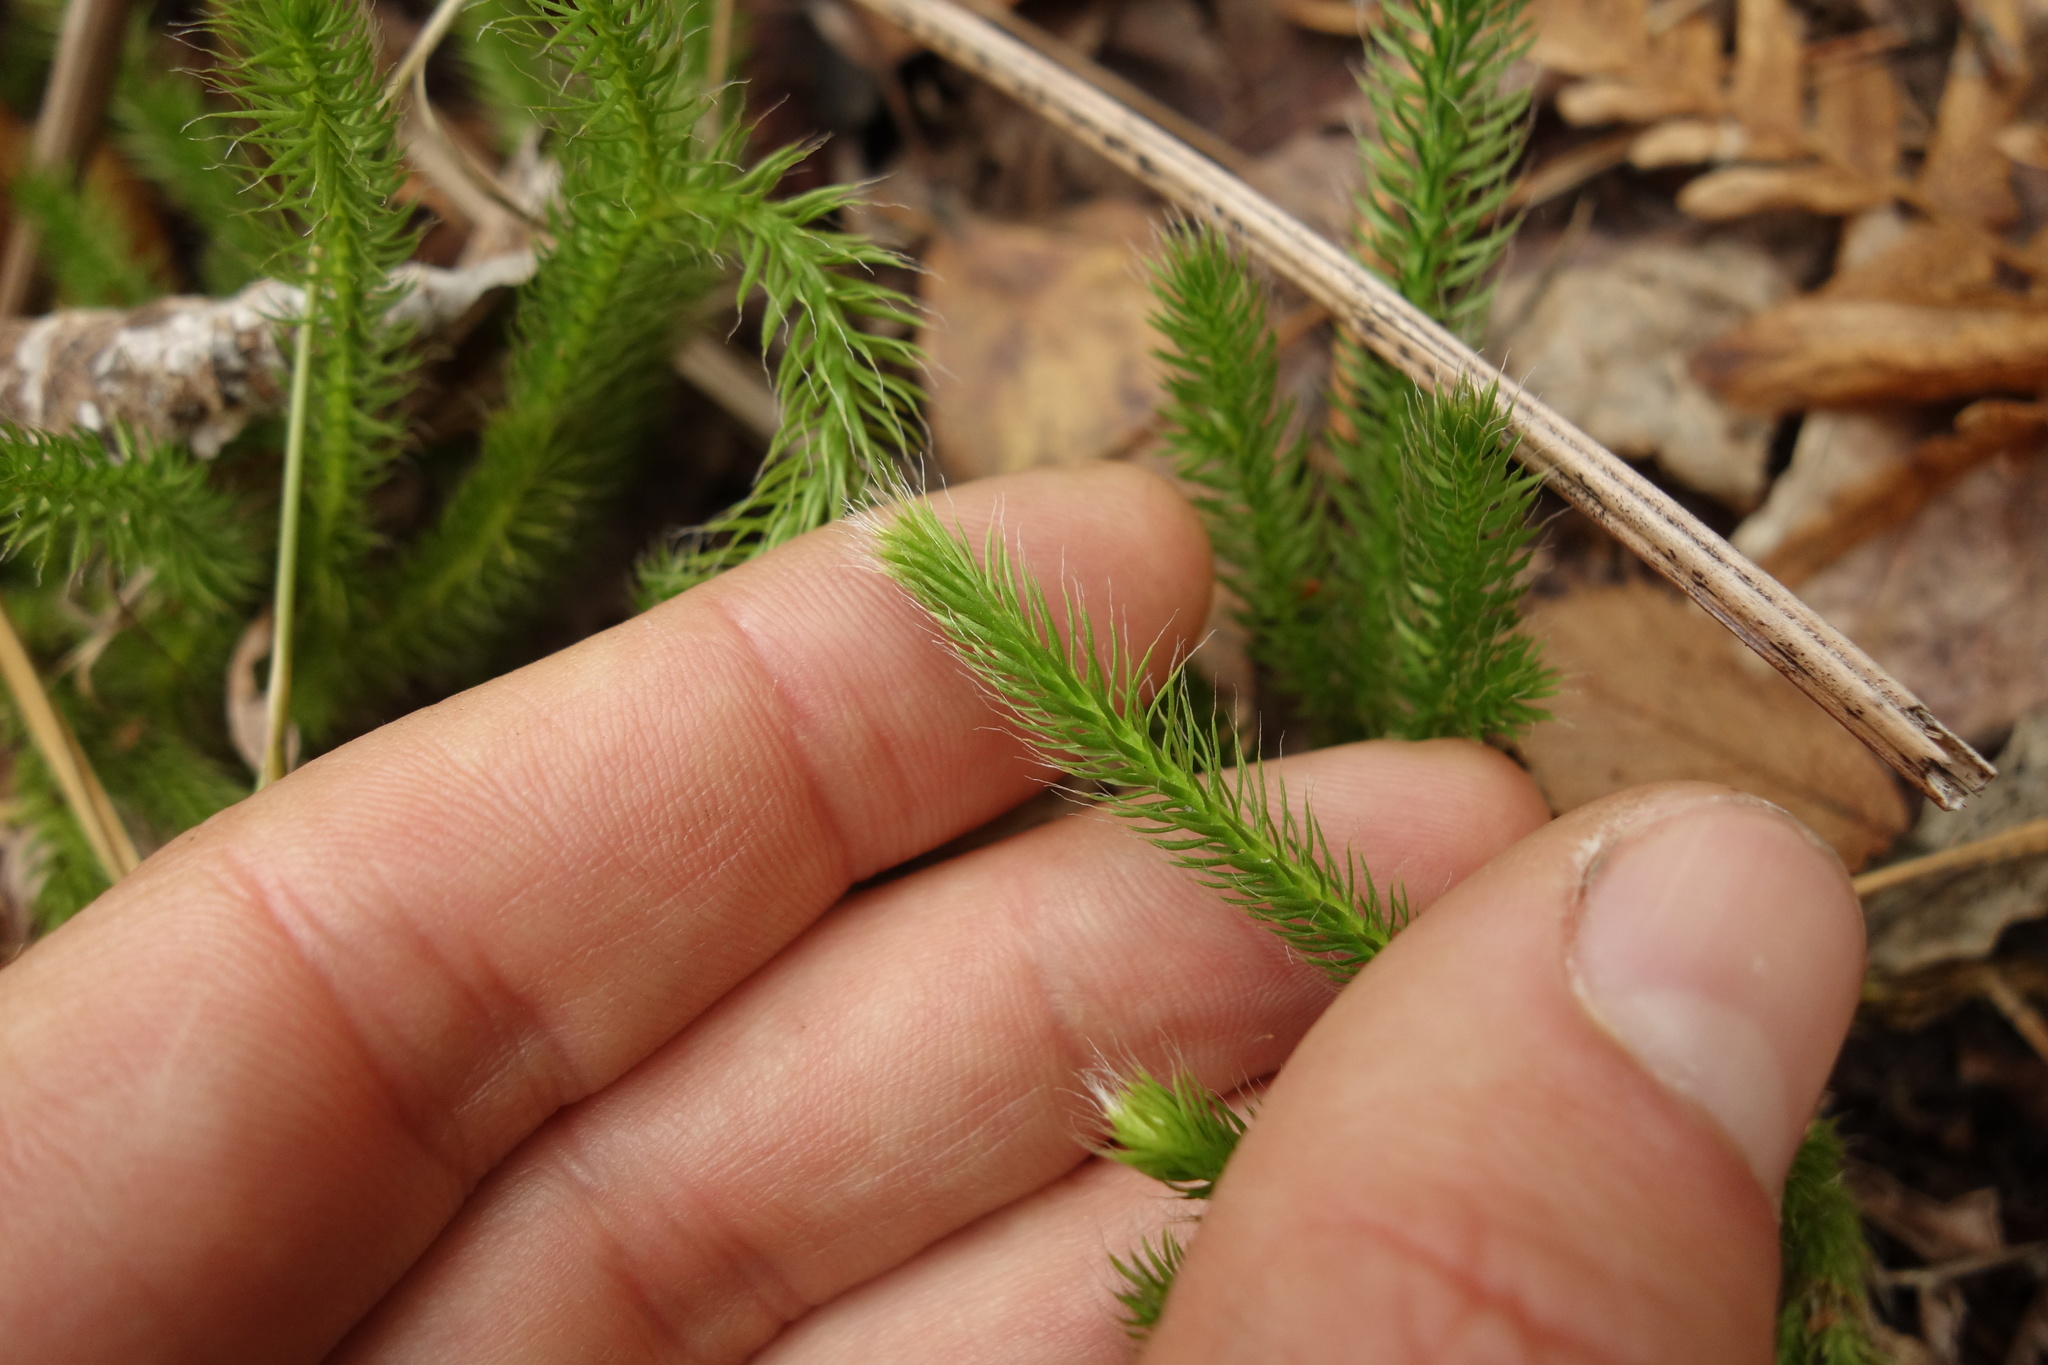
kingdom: Plantae
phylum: Tracheophyta
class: Lycopodiopsida
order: Lycopodiales
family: Lycopodiaceae
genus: Lycopodium
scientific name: Lycopodium clavatum
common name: Stag's-horn clubmoss
